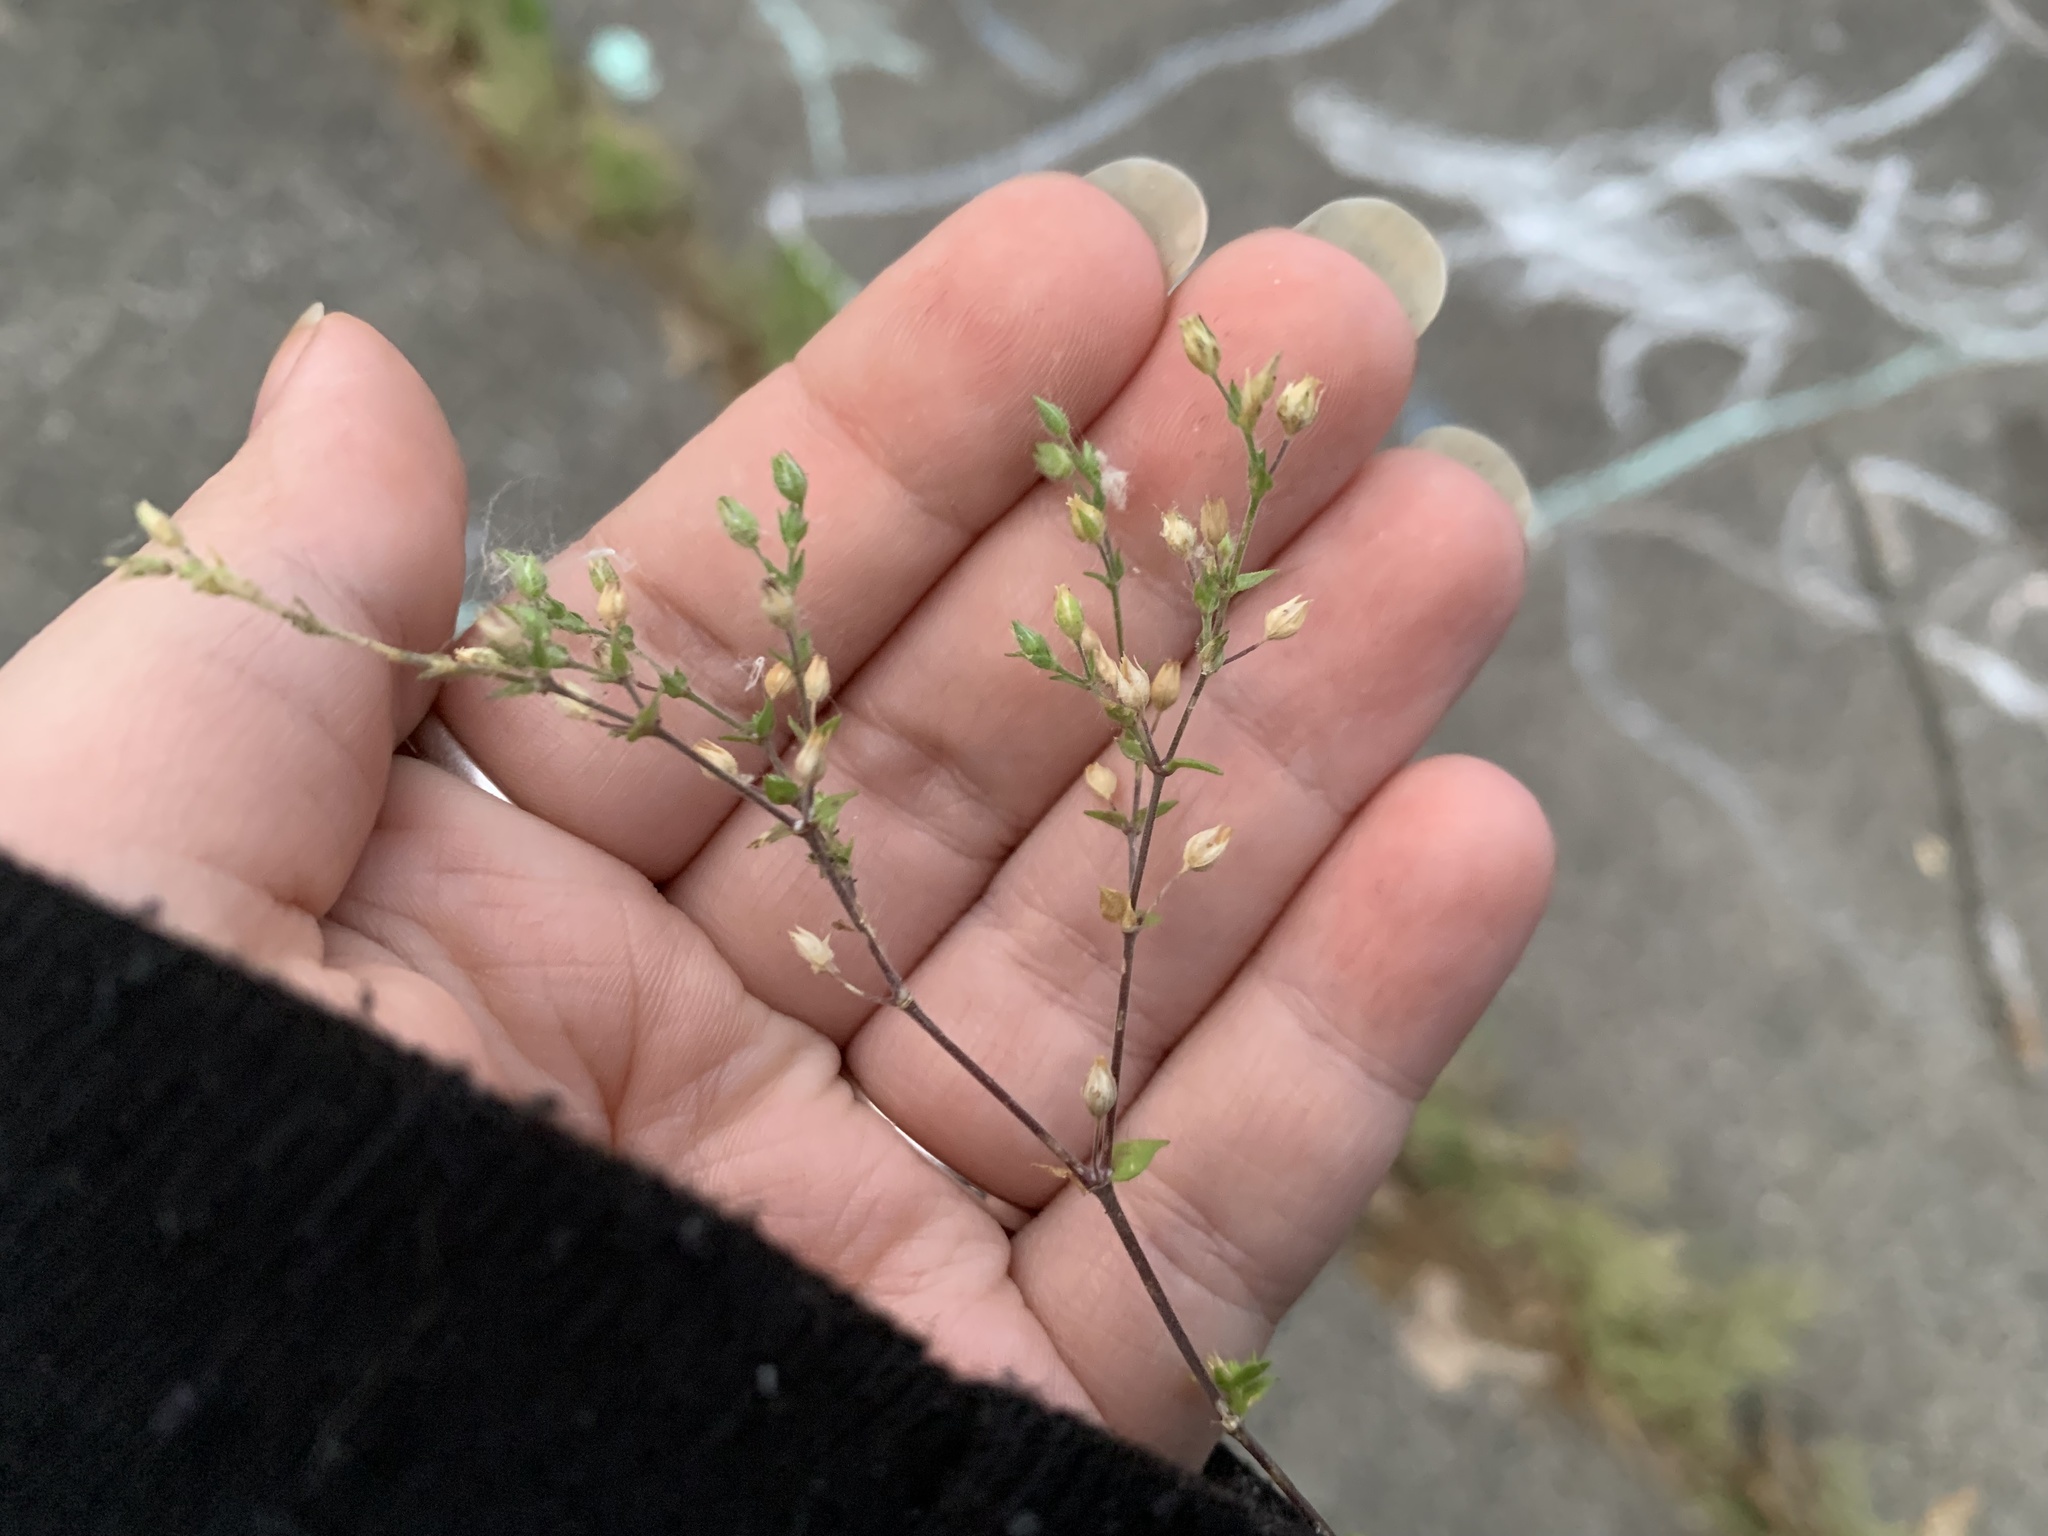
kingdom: Plantae
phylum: Tracheophyta
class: Magnoliopsida
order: Caryophyllales
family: Caryophyllaceae
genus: Arenaria
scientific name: Arenaria serpyllifolia
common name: Thyme-leaved sandwort
